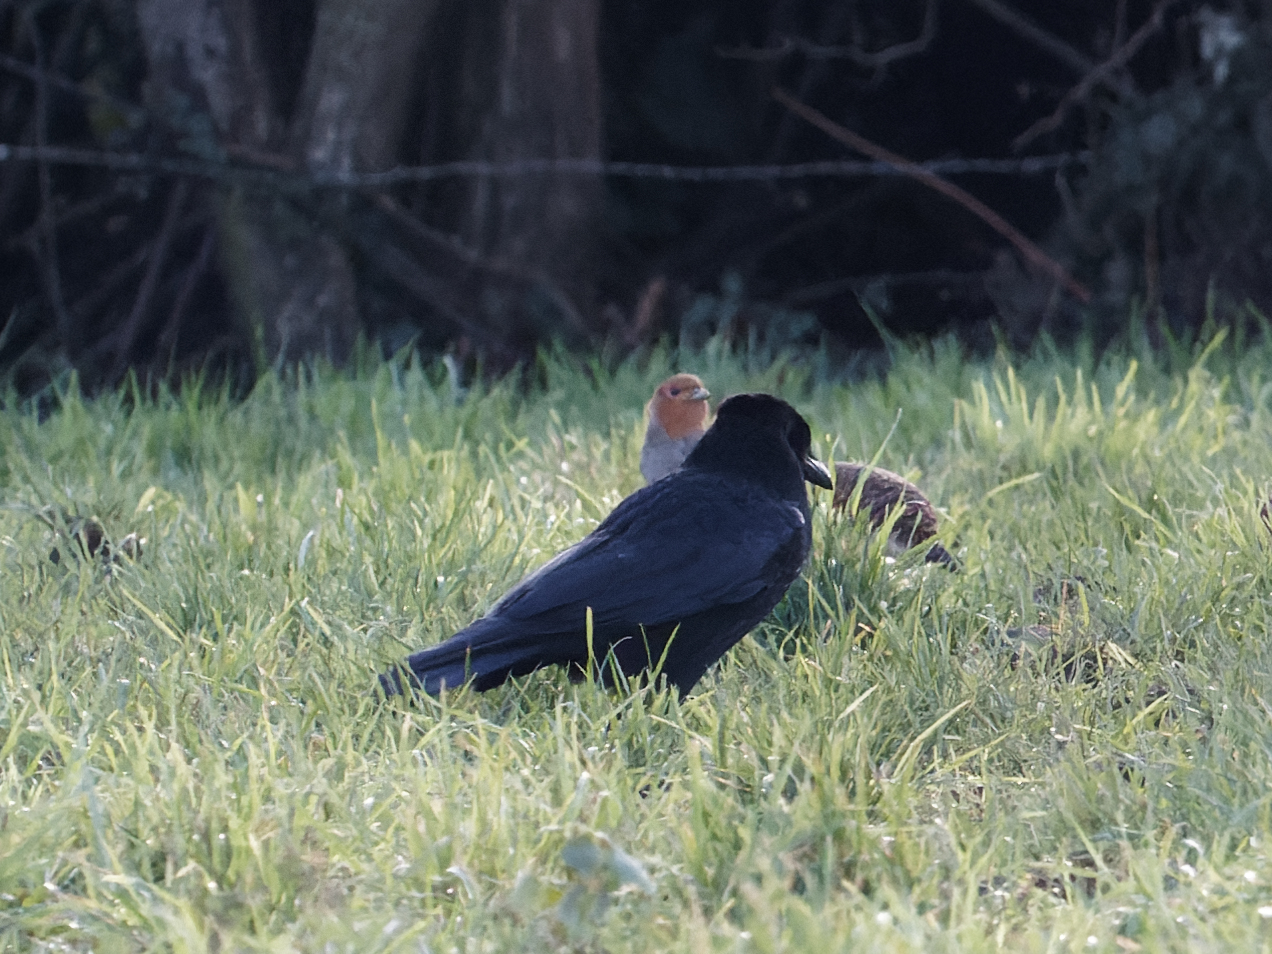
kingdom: Animalia
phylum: Chordata
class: Aves
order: Passeriformes
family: Corvidae
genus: Corvus
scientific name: Corvus corone
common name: Carrion crow
